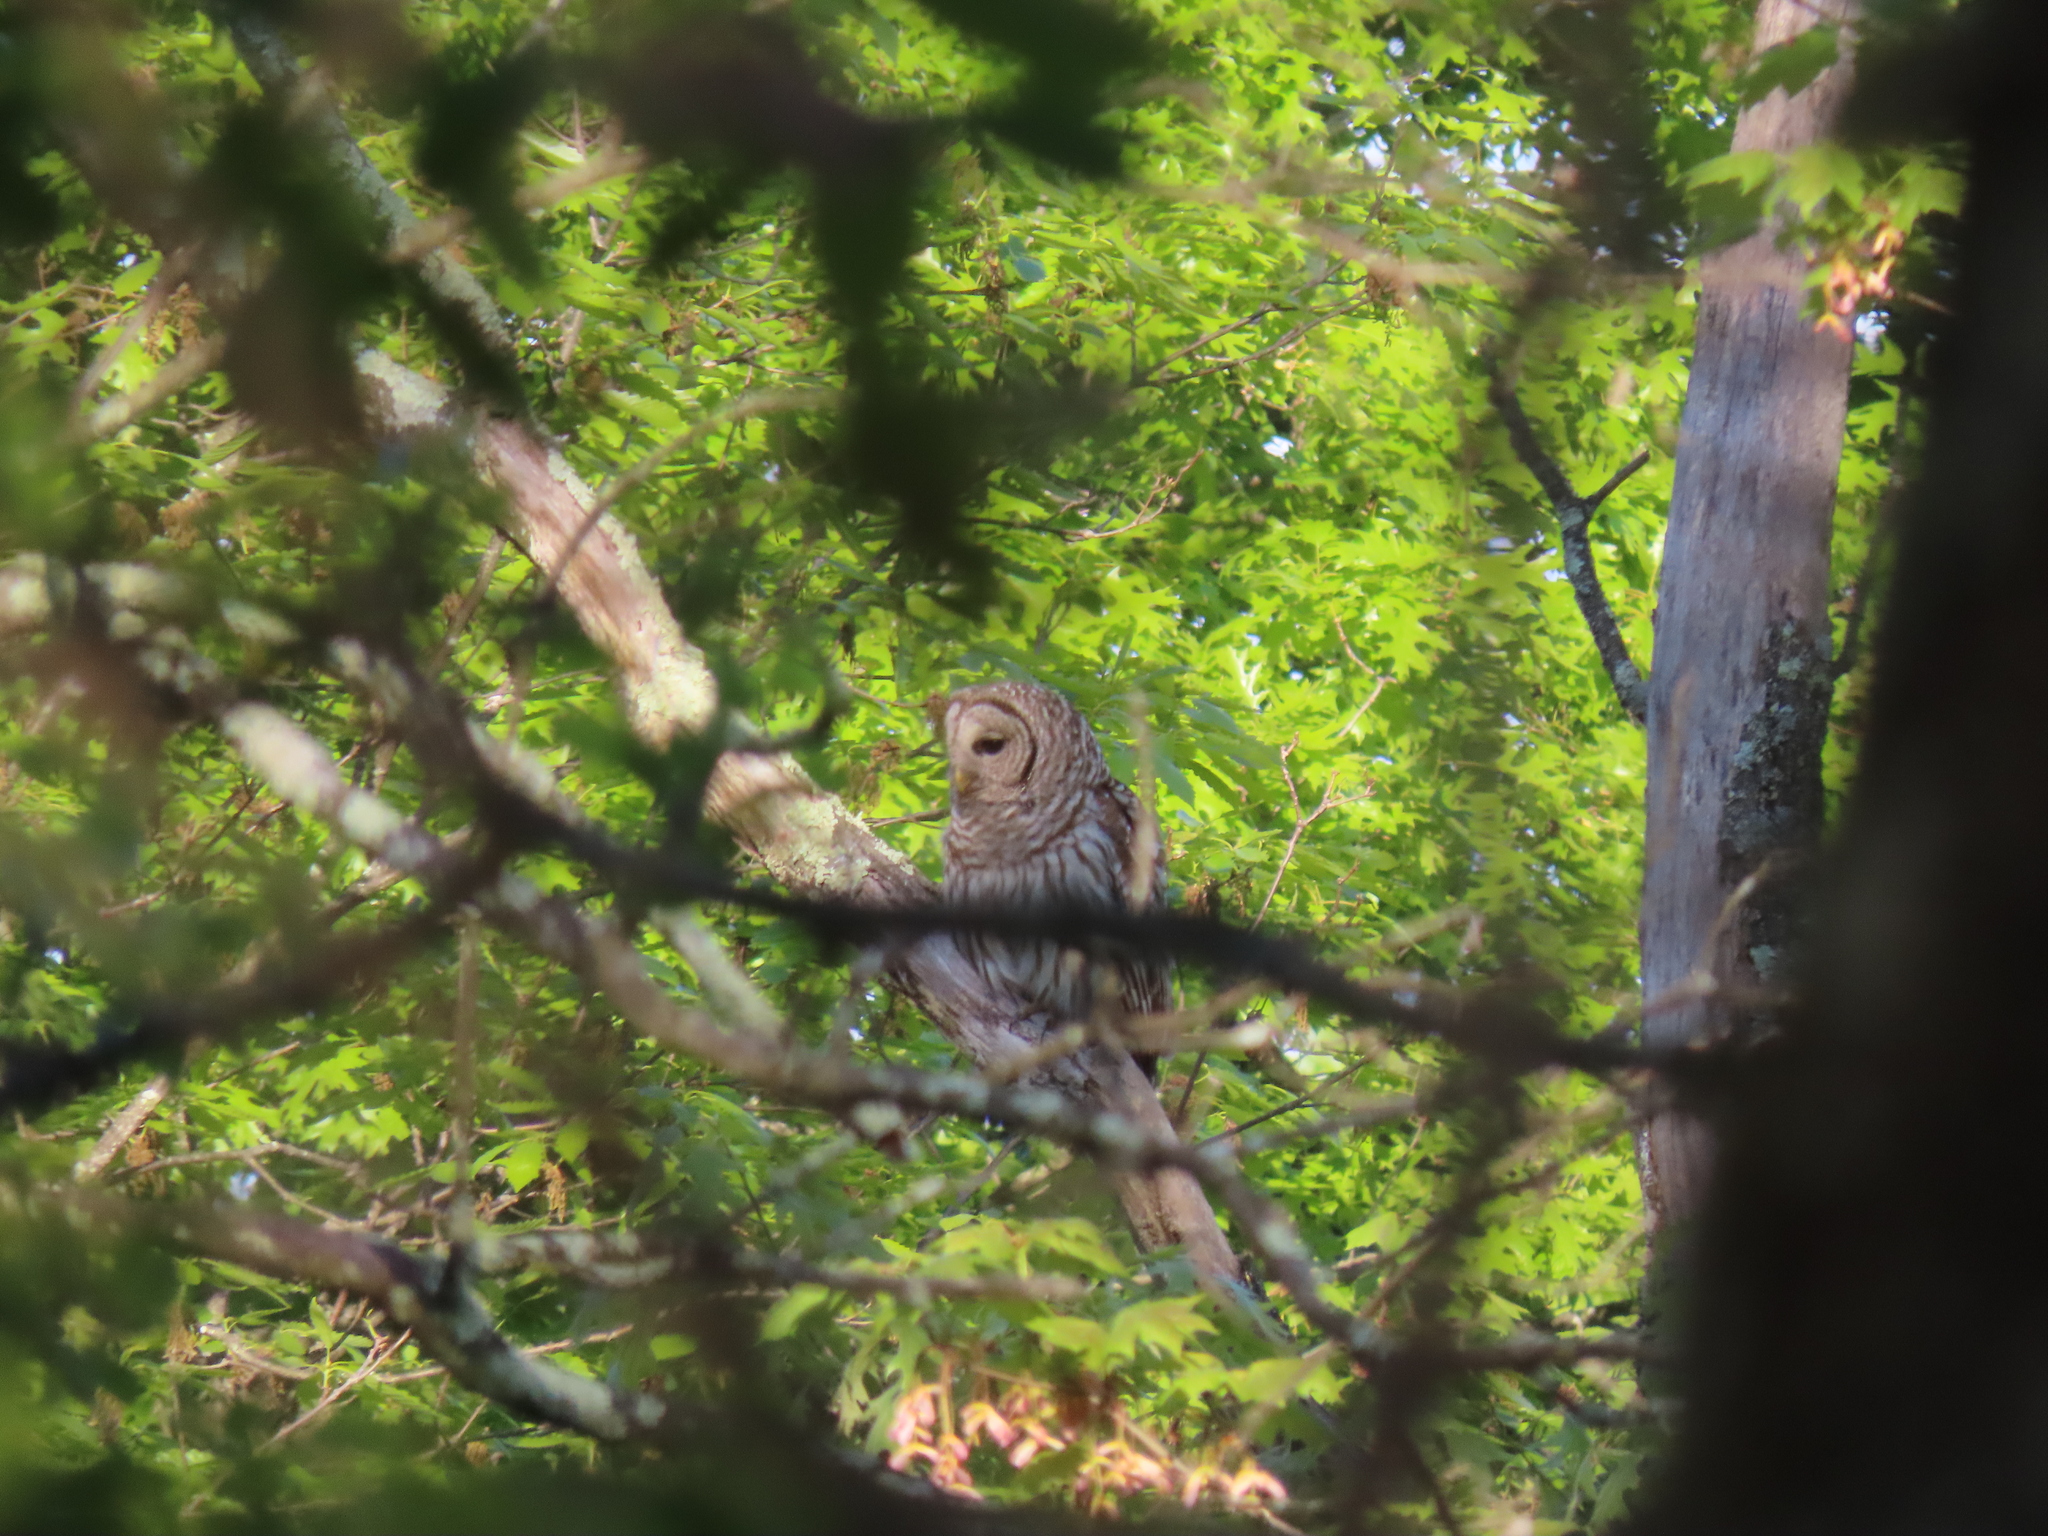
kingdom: Animalia
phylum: Chordata
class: Aves
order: Strigiformes
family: Strigidae
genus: Strix
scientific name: Strix varia
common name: Barred owl
